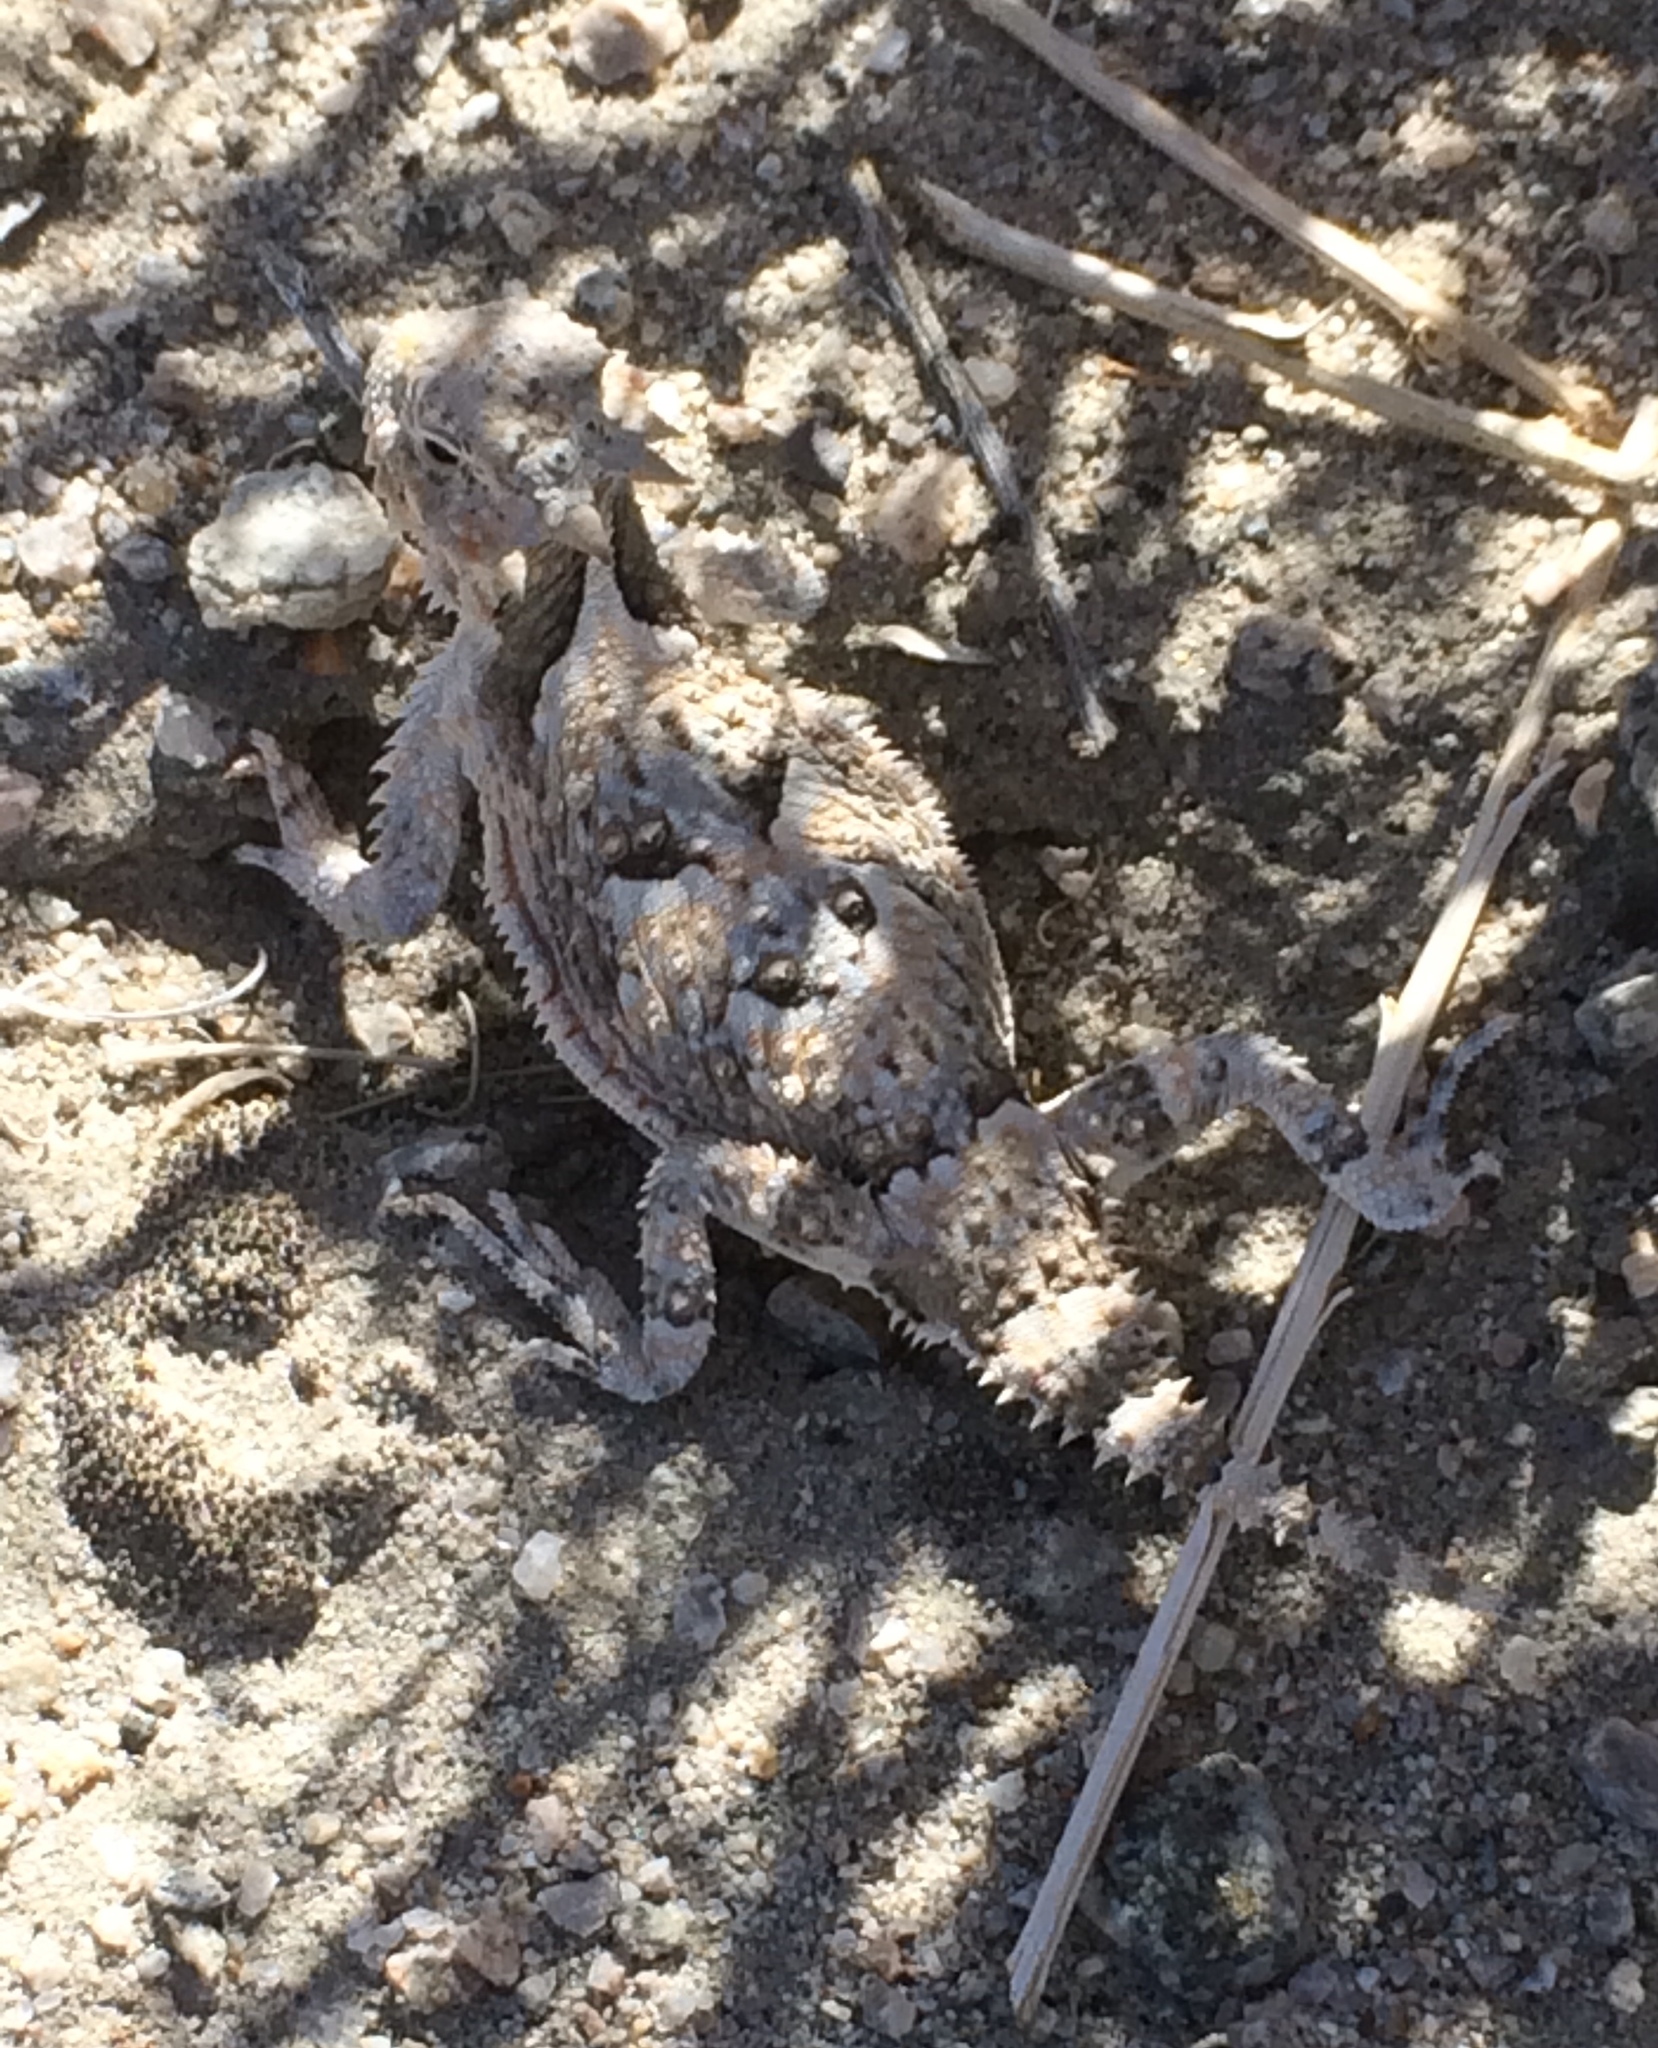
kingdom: Animalia
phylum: Chordata
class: Squamata
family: Phrynosomatidae
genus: Phrynosoma
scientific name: Phrynosoma platyrhinos
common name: Desert horned lizard
